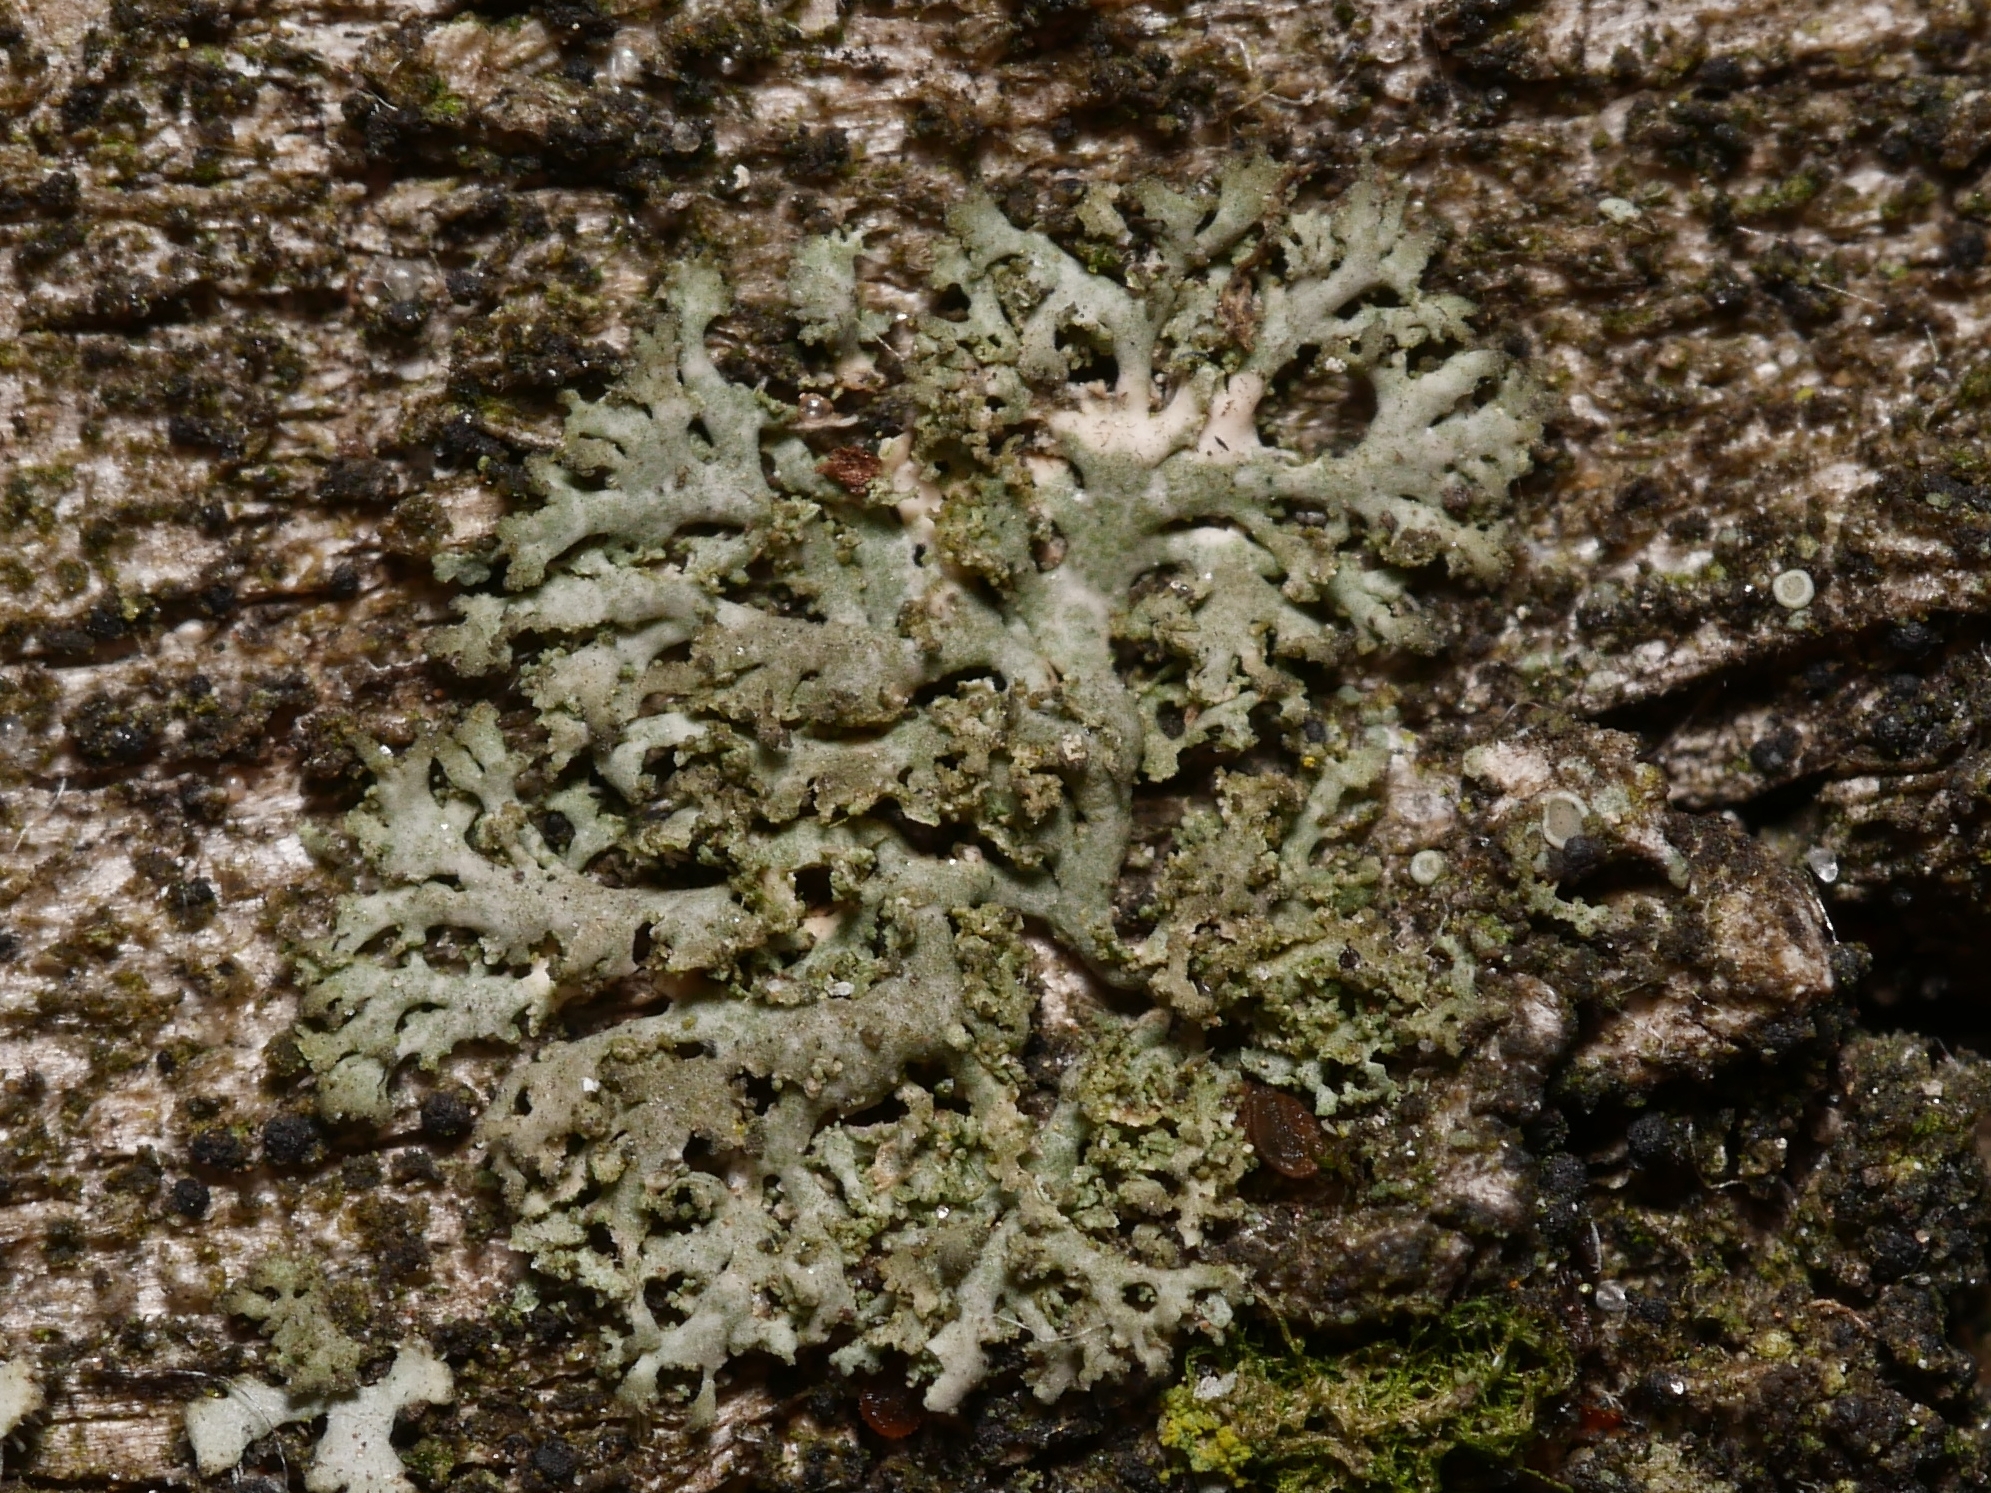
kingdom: Fungi
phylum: Ascomycota
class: Lecanoromycetes
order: Caliciales
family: Physciaceae
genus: Physciella
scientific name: Physciella nigricans
